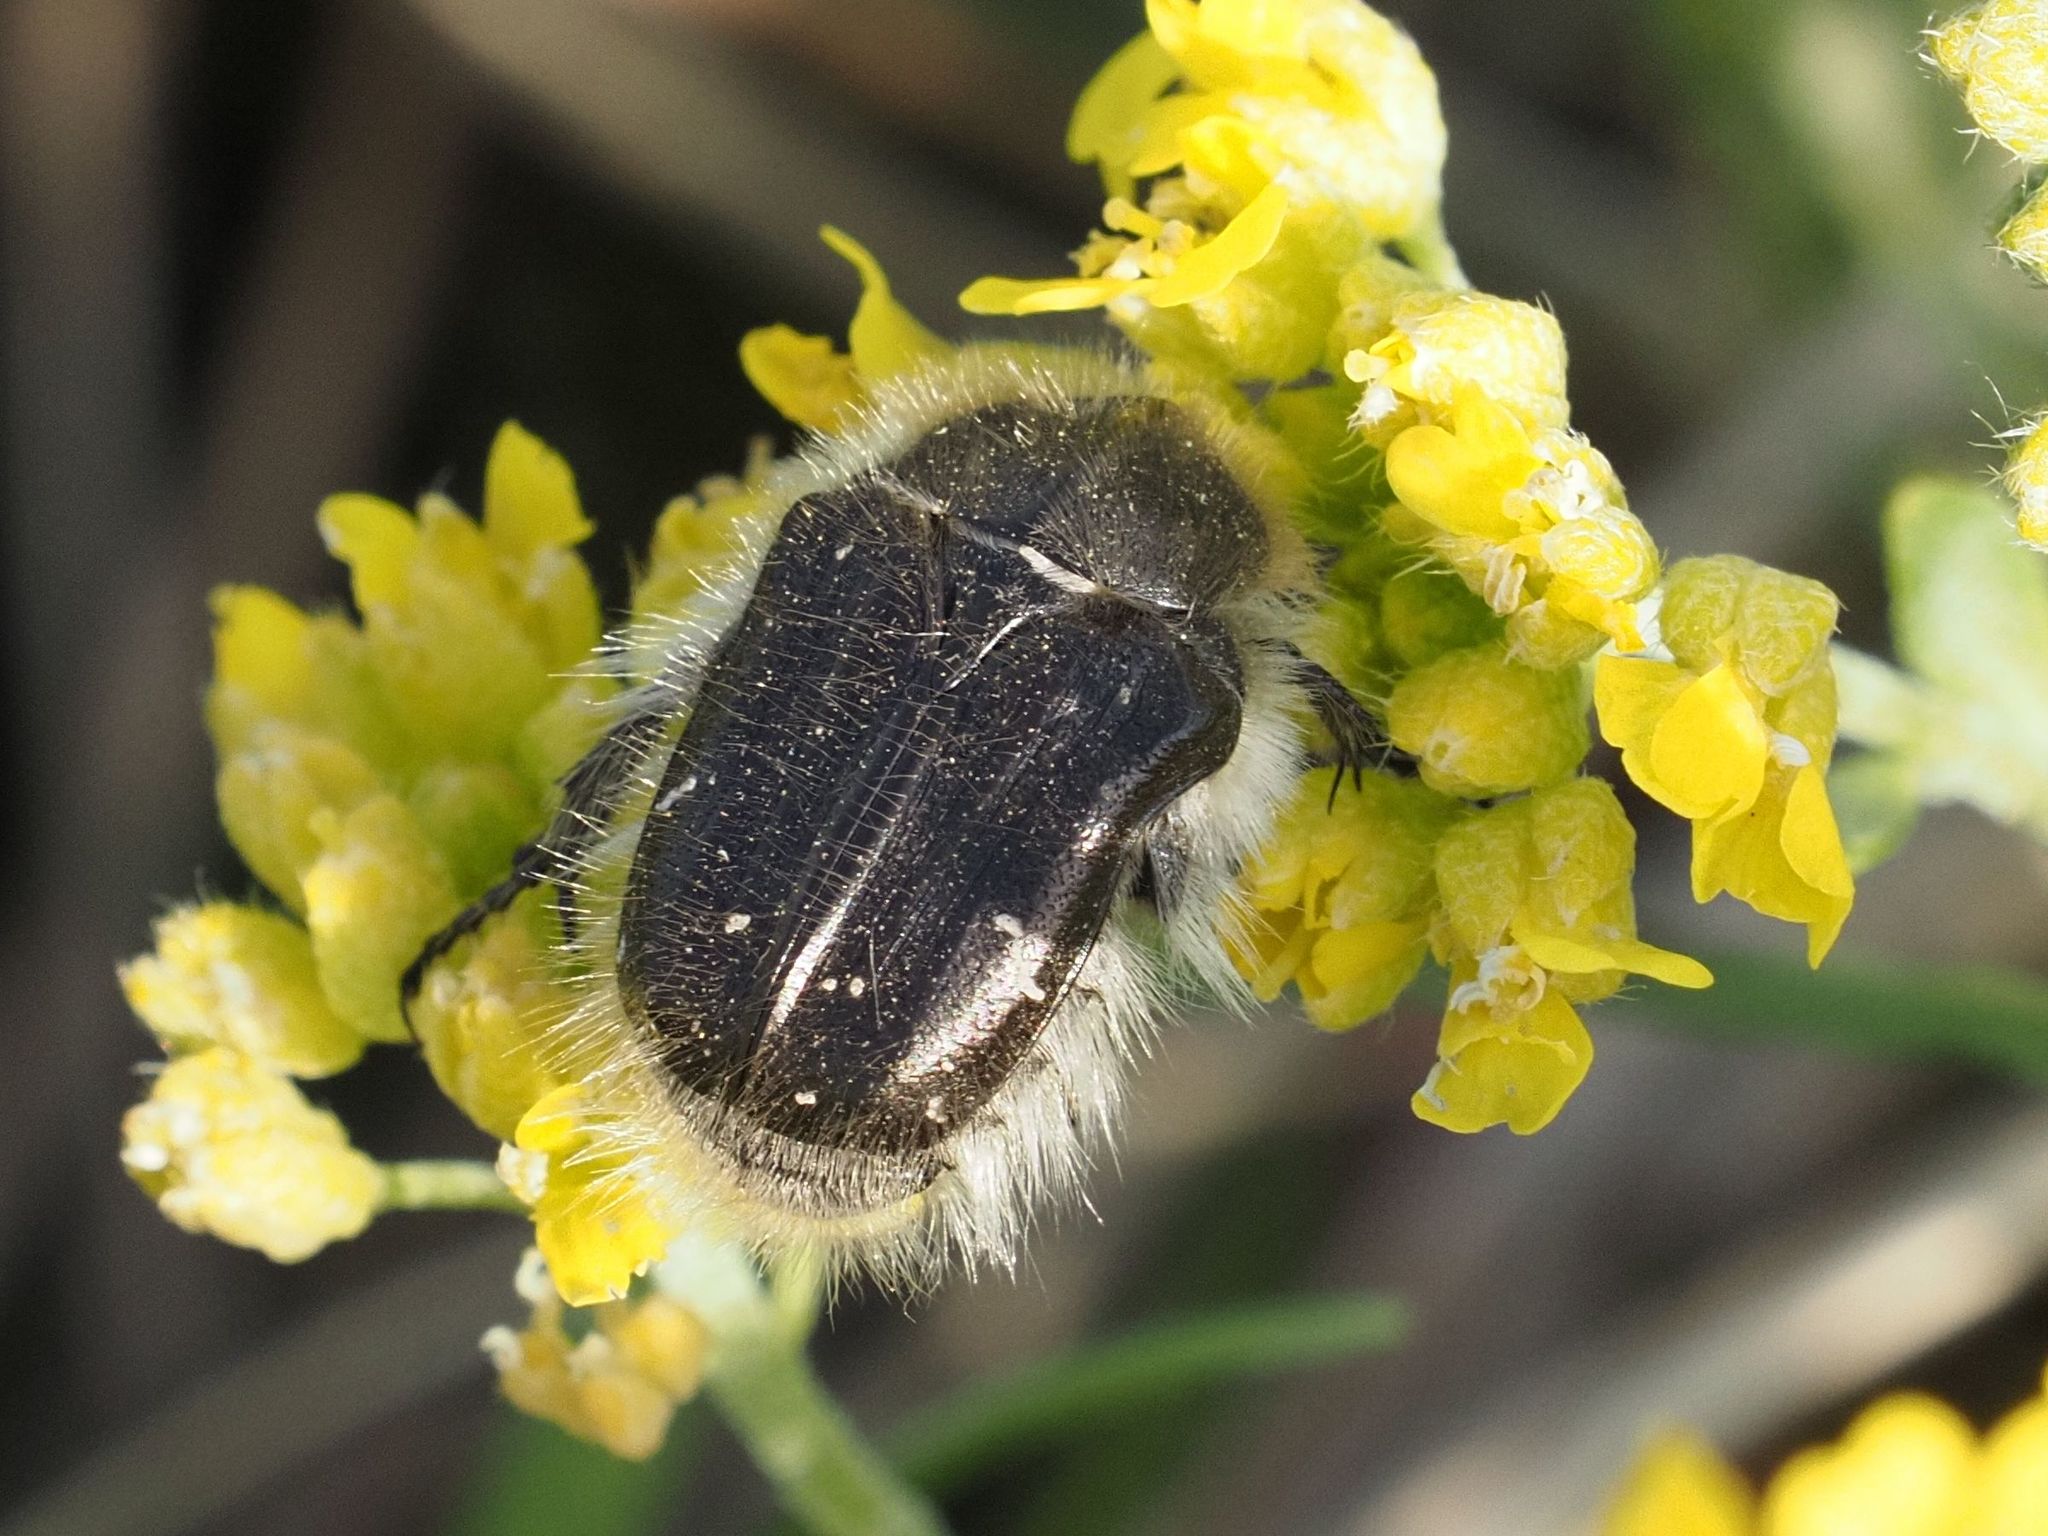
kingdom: Animalia
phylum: Arthropoda
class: Insecta
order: Coleoptera
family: Scarabaeidae
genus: Tropinota
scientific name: Tropinota hirta
